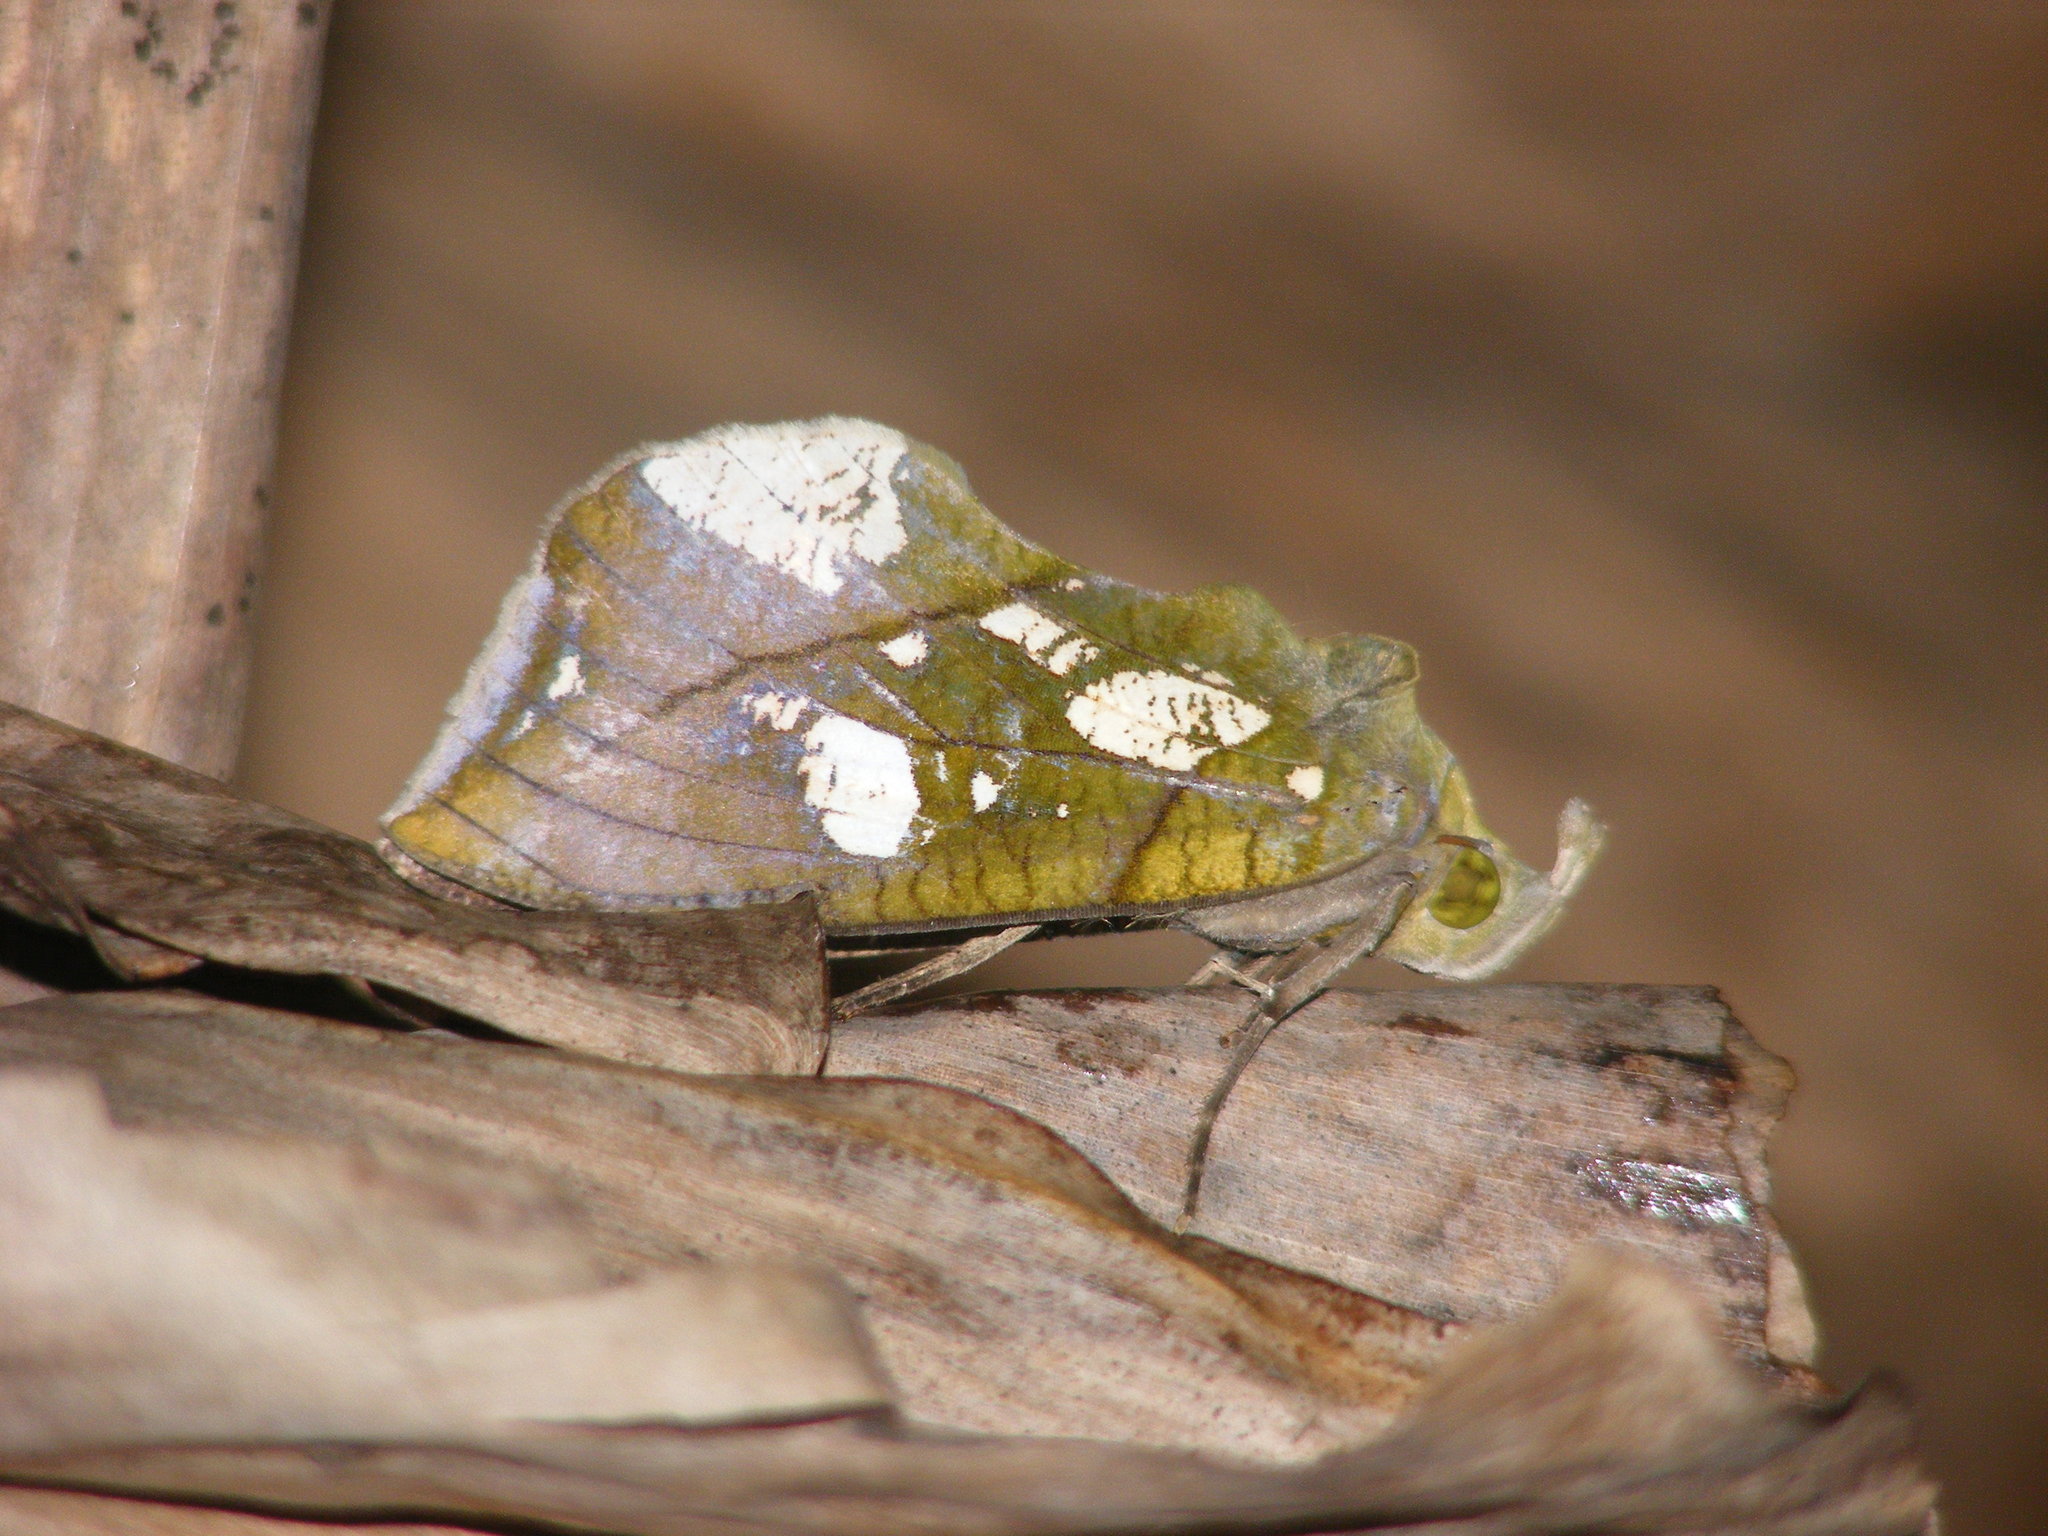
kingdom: Animalia
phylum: Arthropoda
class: Insecta
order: Lepidoptera
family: Erebidae
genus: Eudocima
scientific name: Eudocima hypermnestra
